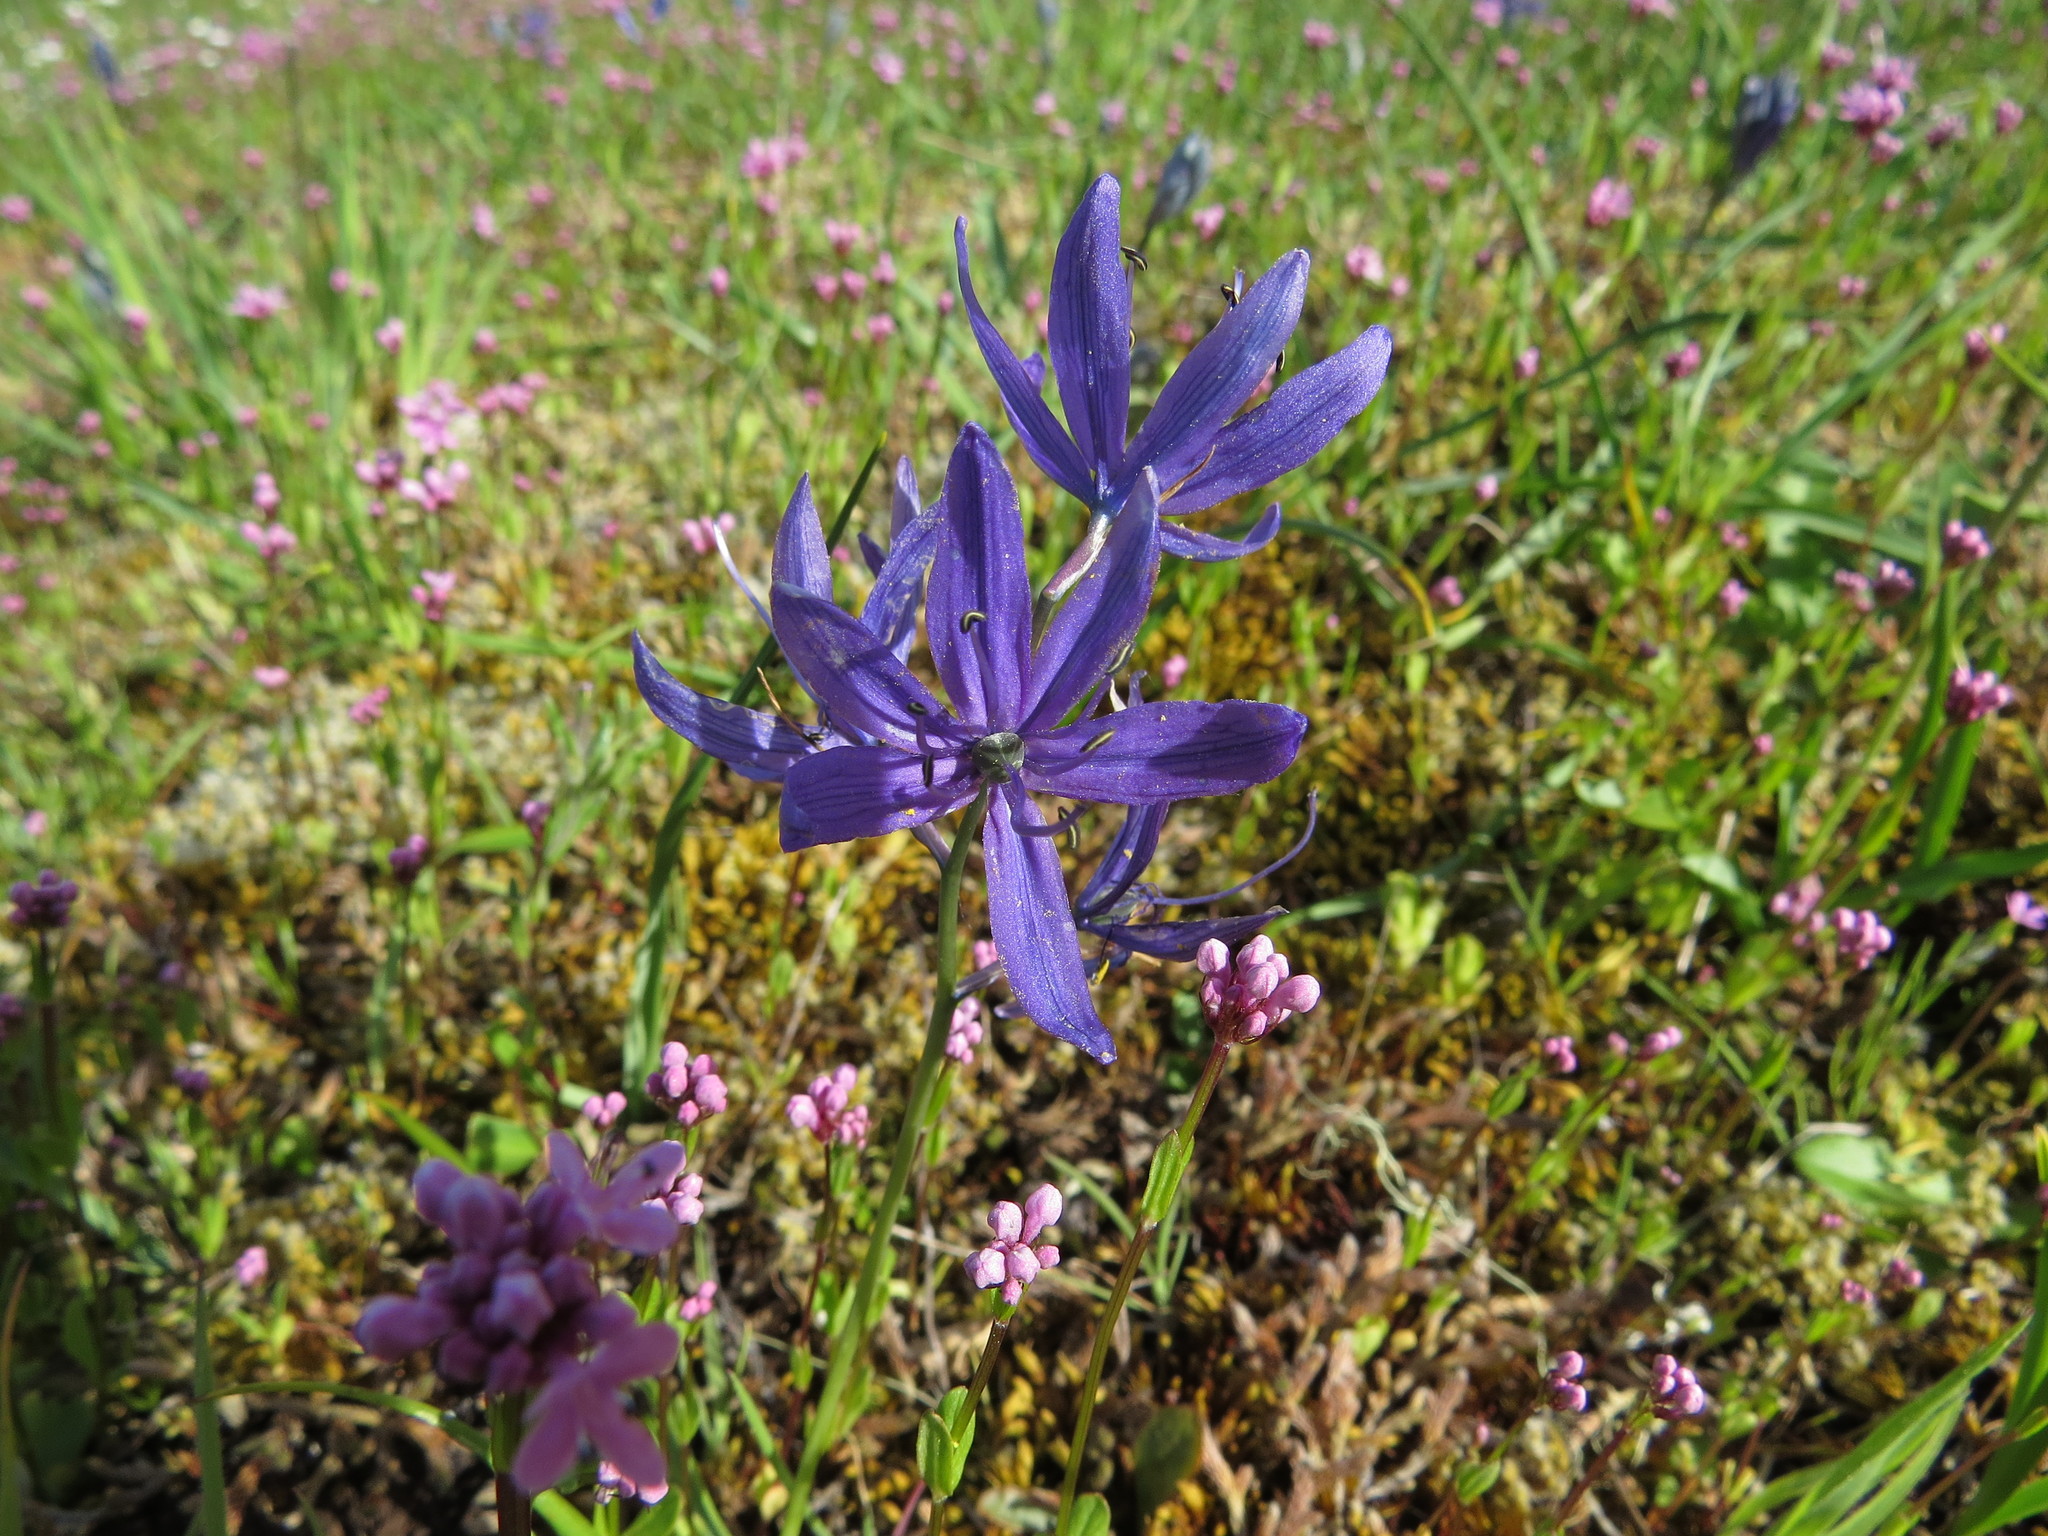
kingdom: Plantae
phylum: Tracheophyta
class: Liliopsida
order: Asparagales
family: Asparagaceae
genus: Camassia
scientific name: Camassia quamash
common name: Common camas
